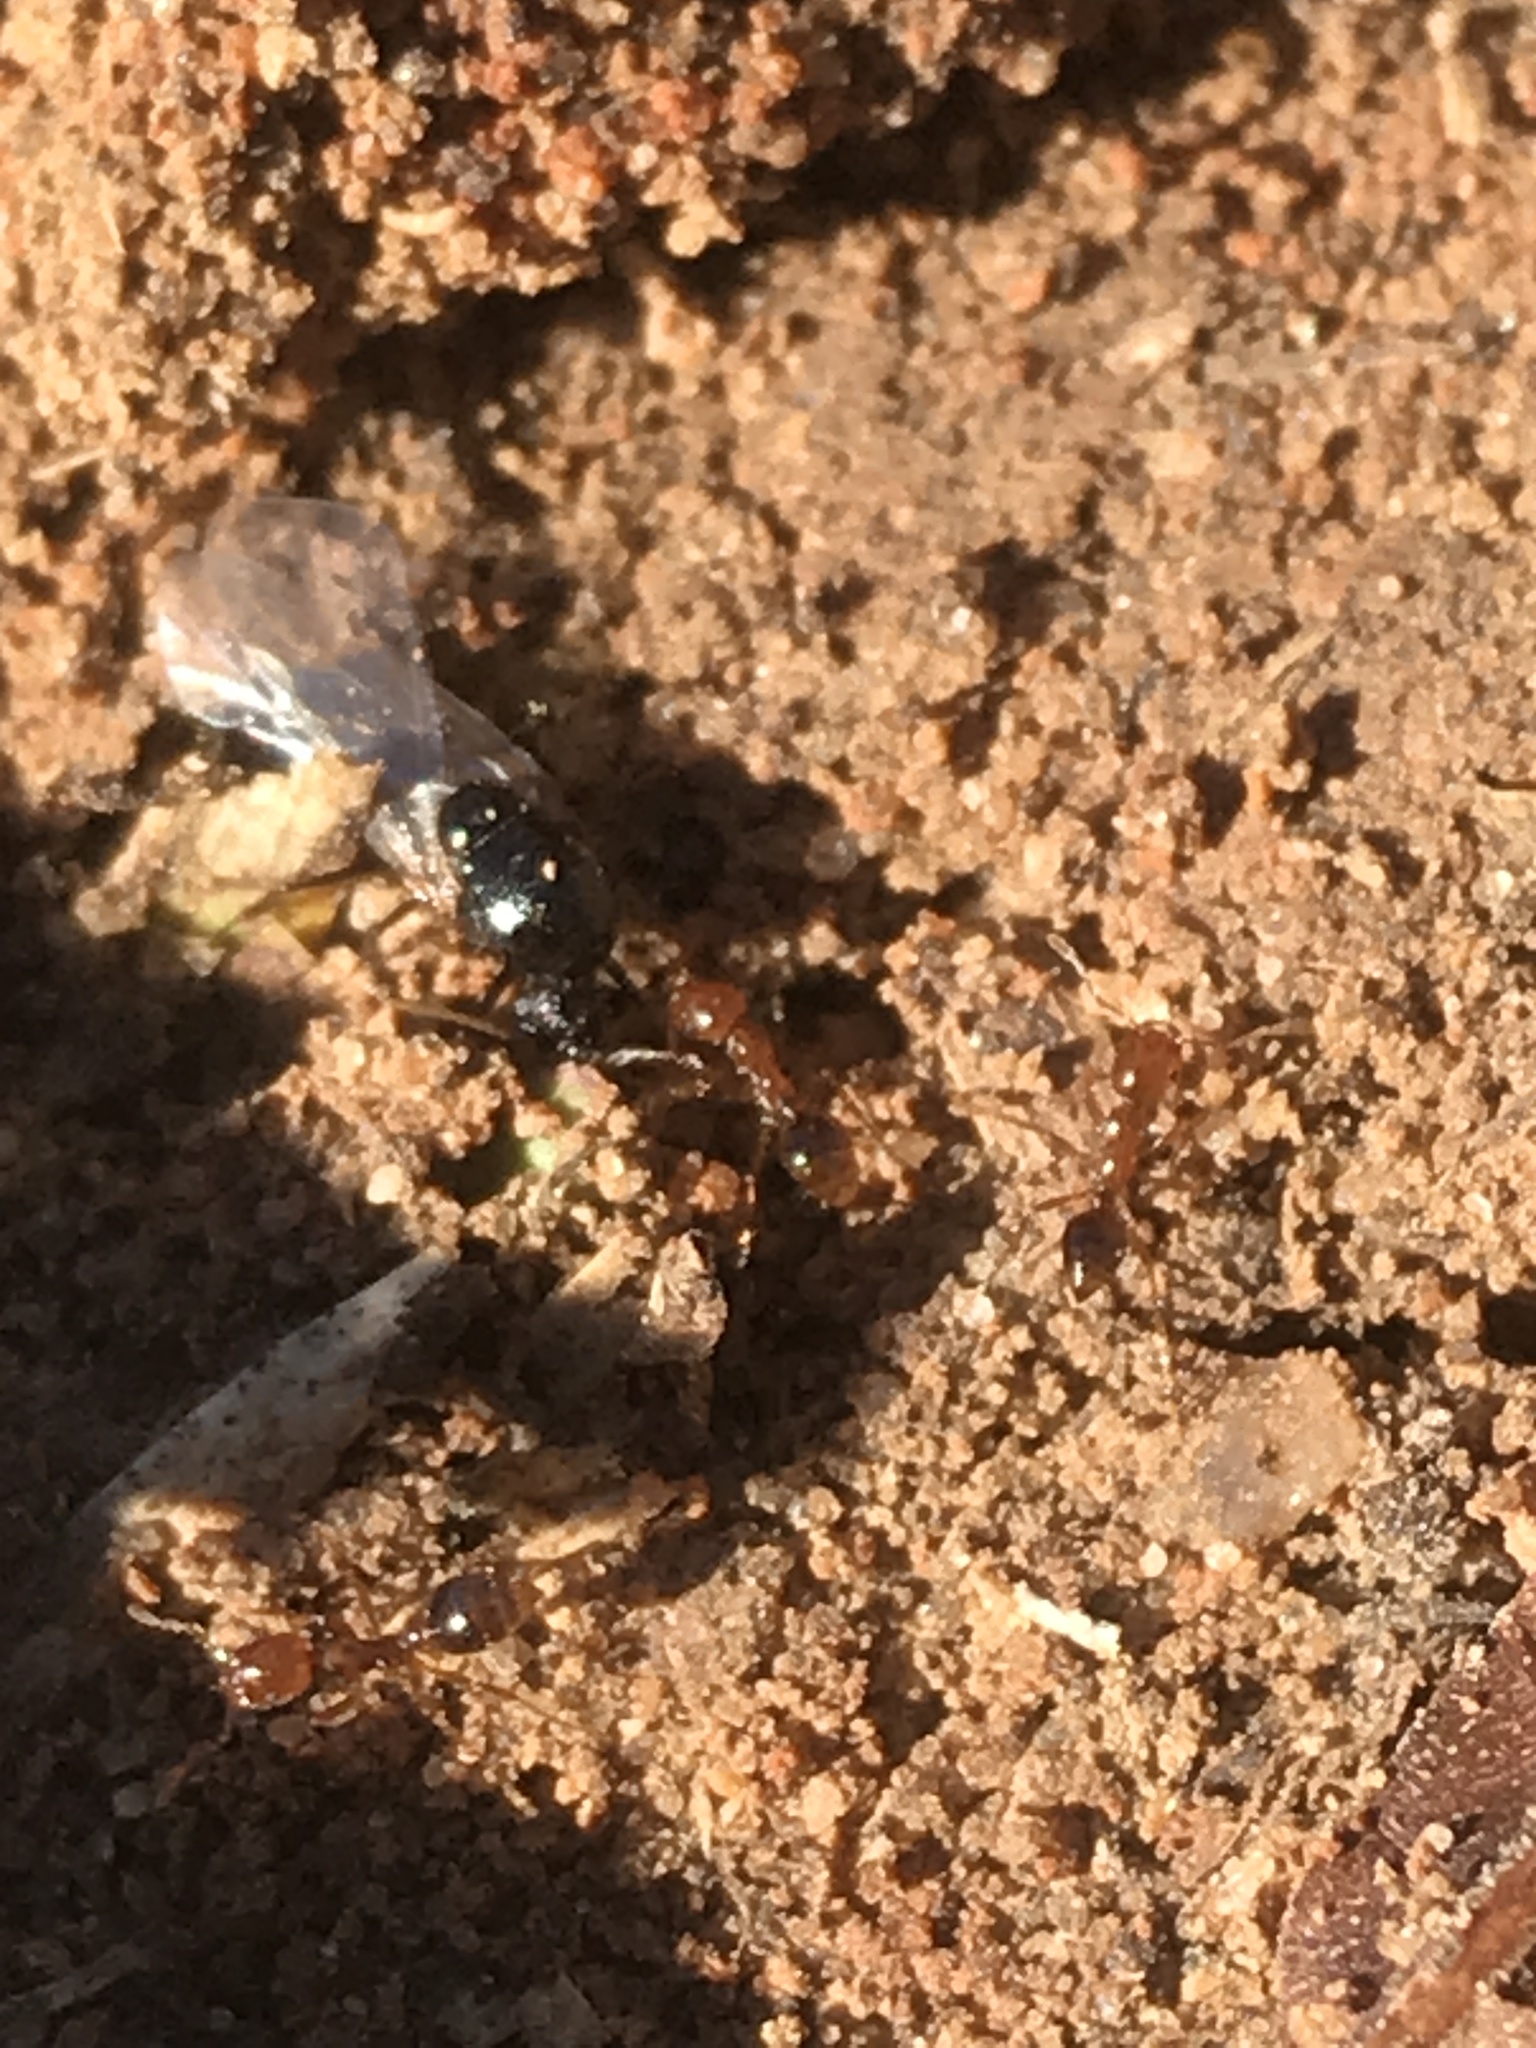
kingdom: Animalia
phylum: Arthropoda
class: Insecta
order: Hymenoptera
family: Formicidae
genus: Solenopsis
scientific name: Solenopsis invicta
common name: Red imported fire ant
